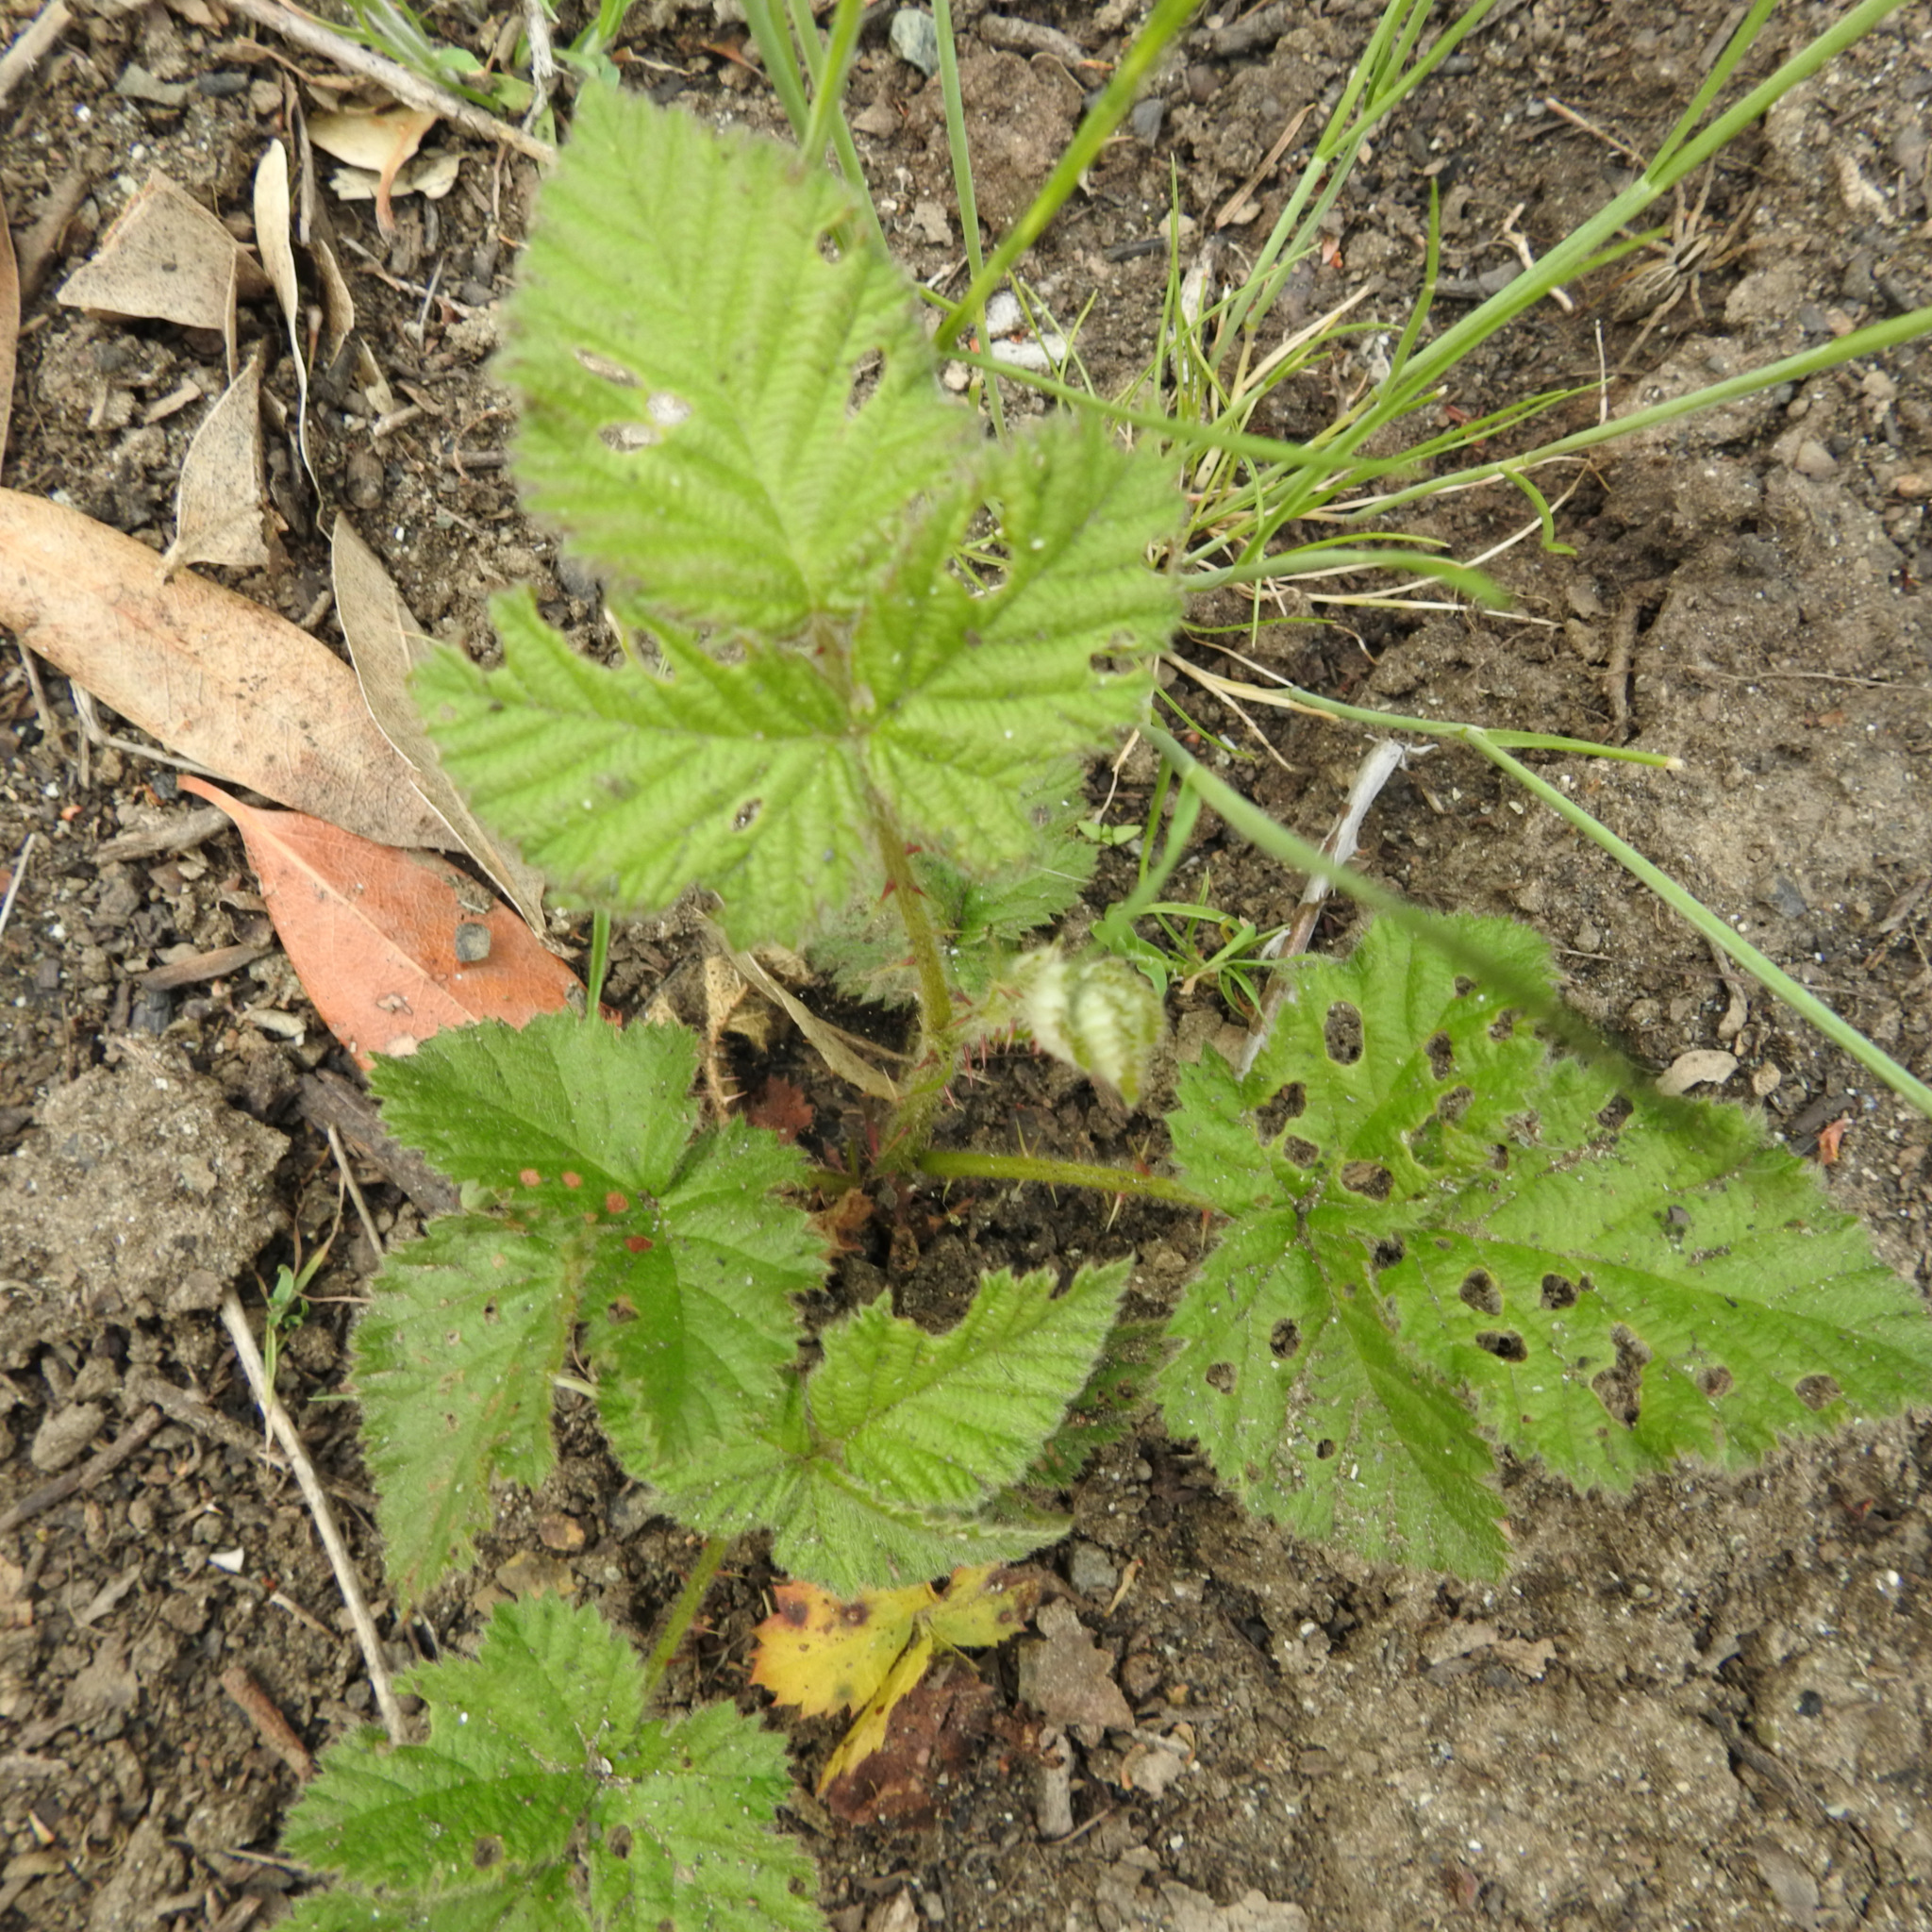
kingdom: Plantae
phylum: Tracheophyta
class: Magnoliopsida
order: Rosales
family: Rosaceae
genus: Rubus
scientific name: Rubus ursinus
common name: Pacific blackberry
